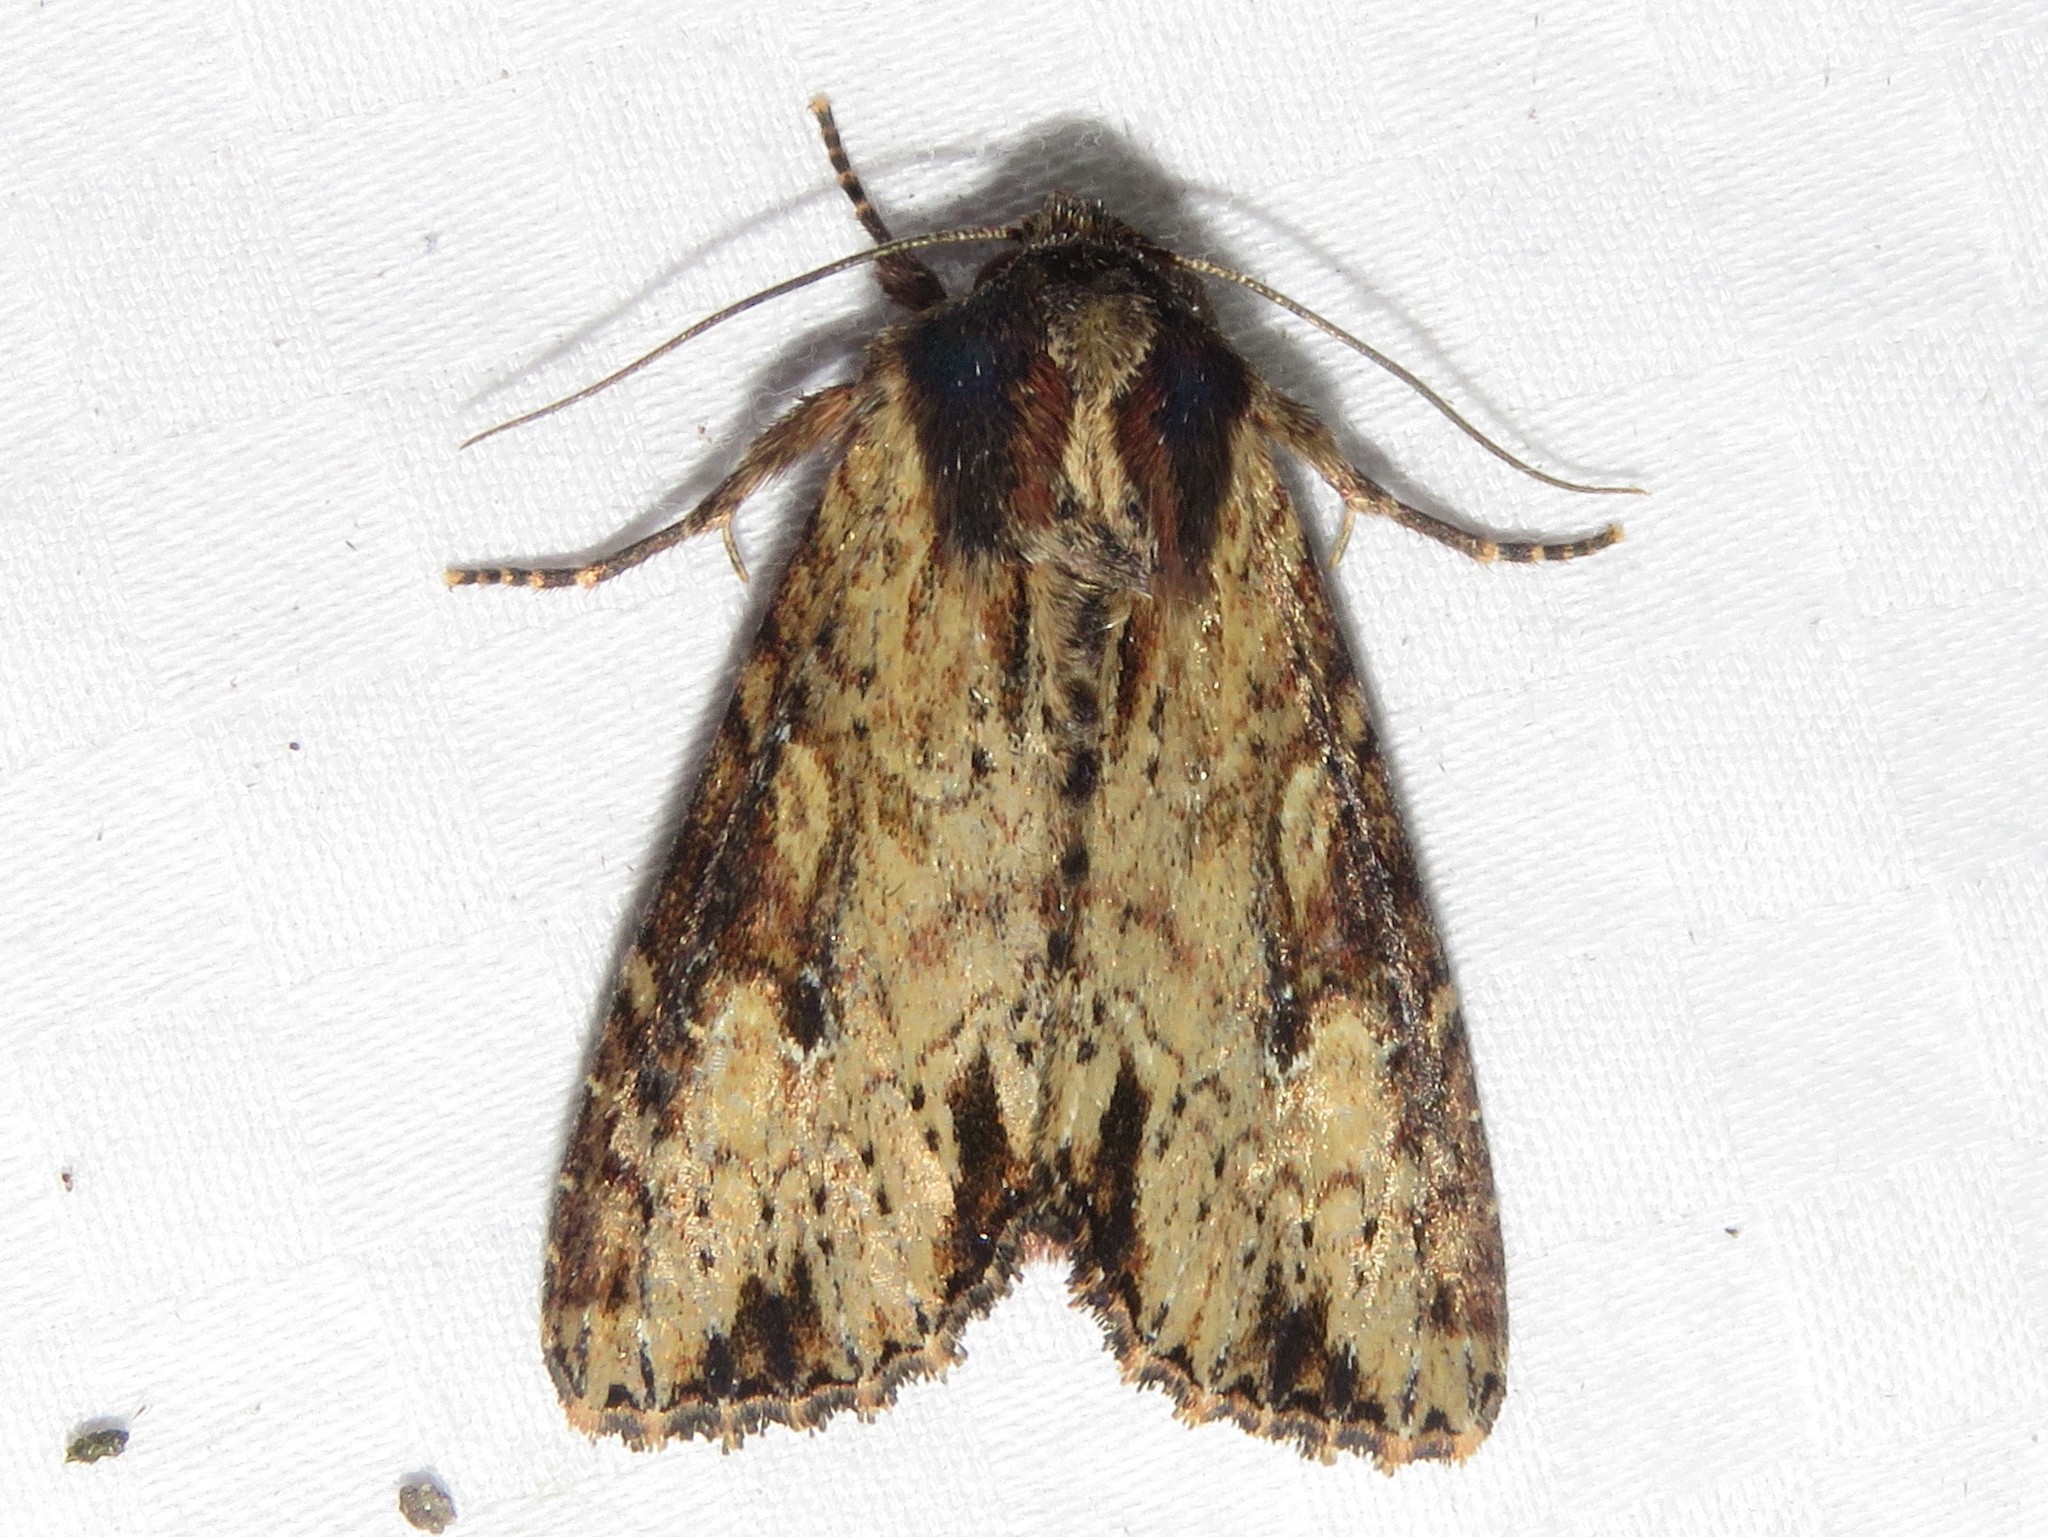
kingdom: Animalia
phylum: Arthropoda
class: Insecta
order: Lepidoptera
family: Noctuidae
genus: Apamea
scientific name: Apamea vultuosa
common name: Airy apamea moth
